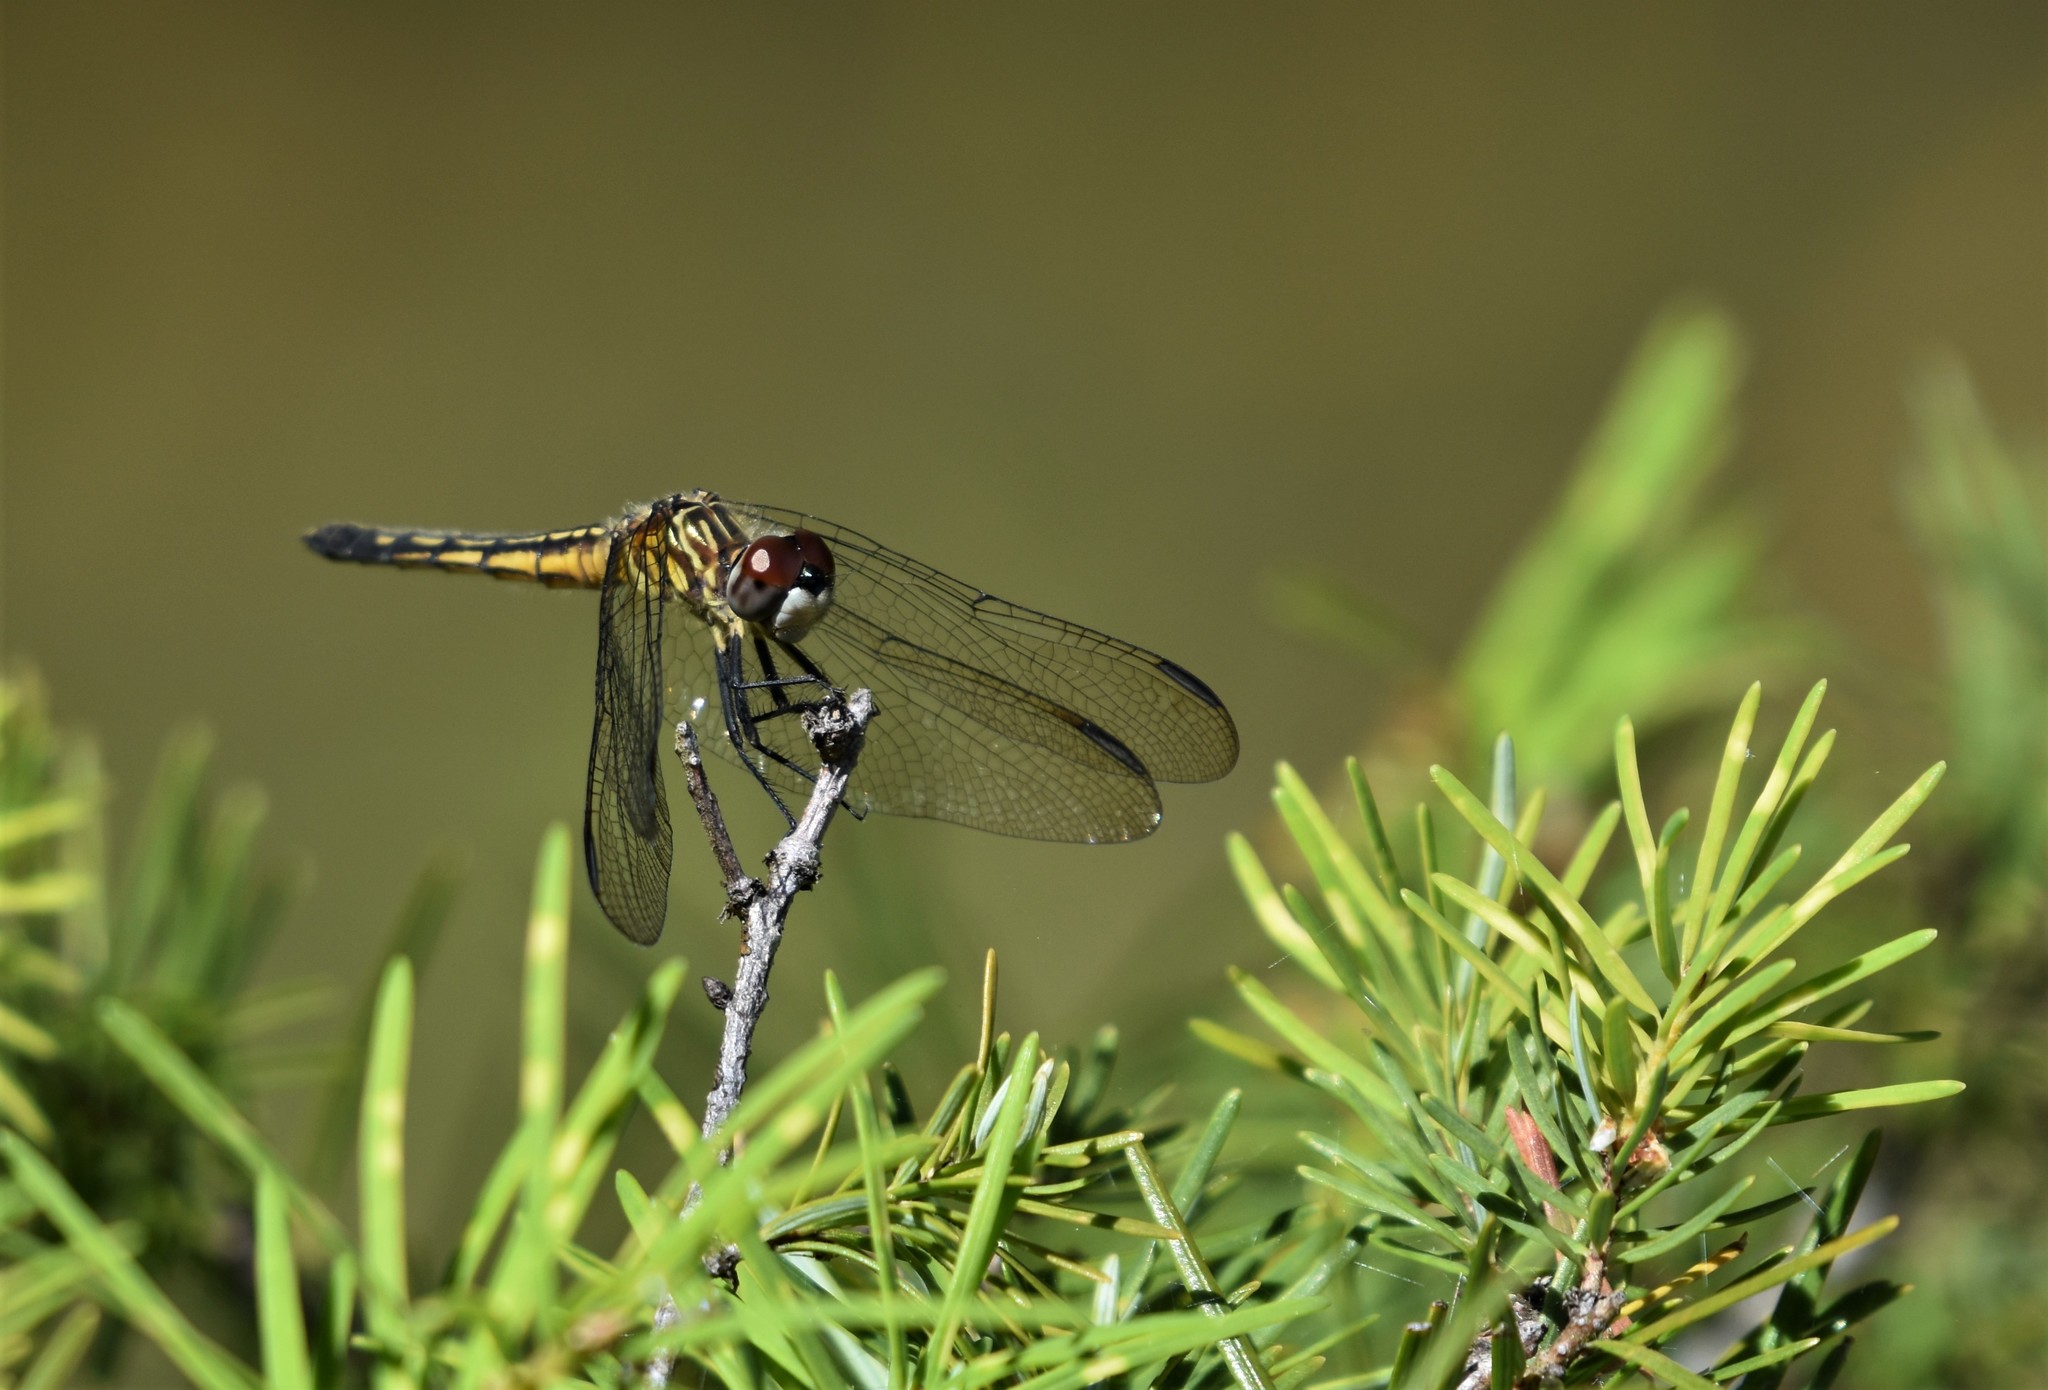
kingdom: Animalia
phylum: Arthropoda
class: Insecta
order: Odonata
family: Libellulidae
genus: Pachydiplax
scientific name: Pachydiplax longipennis
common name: Blue dasher
